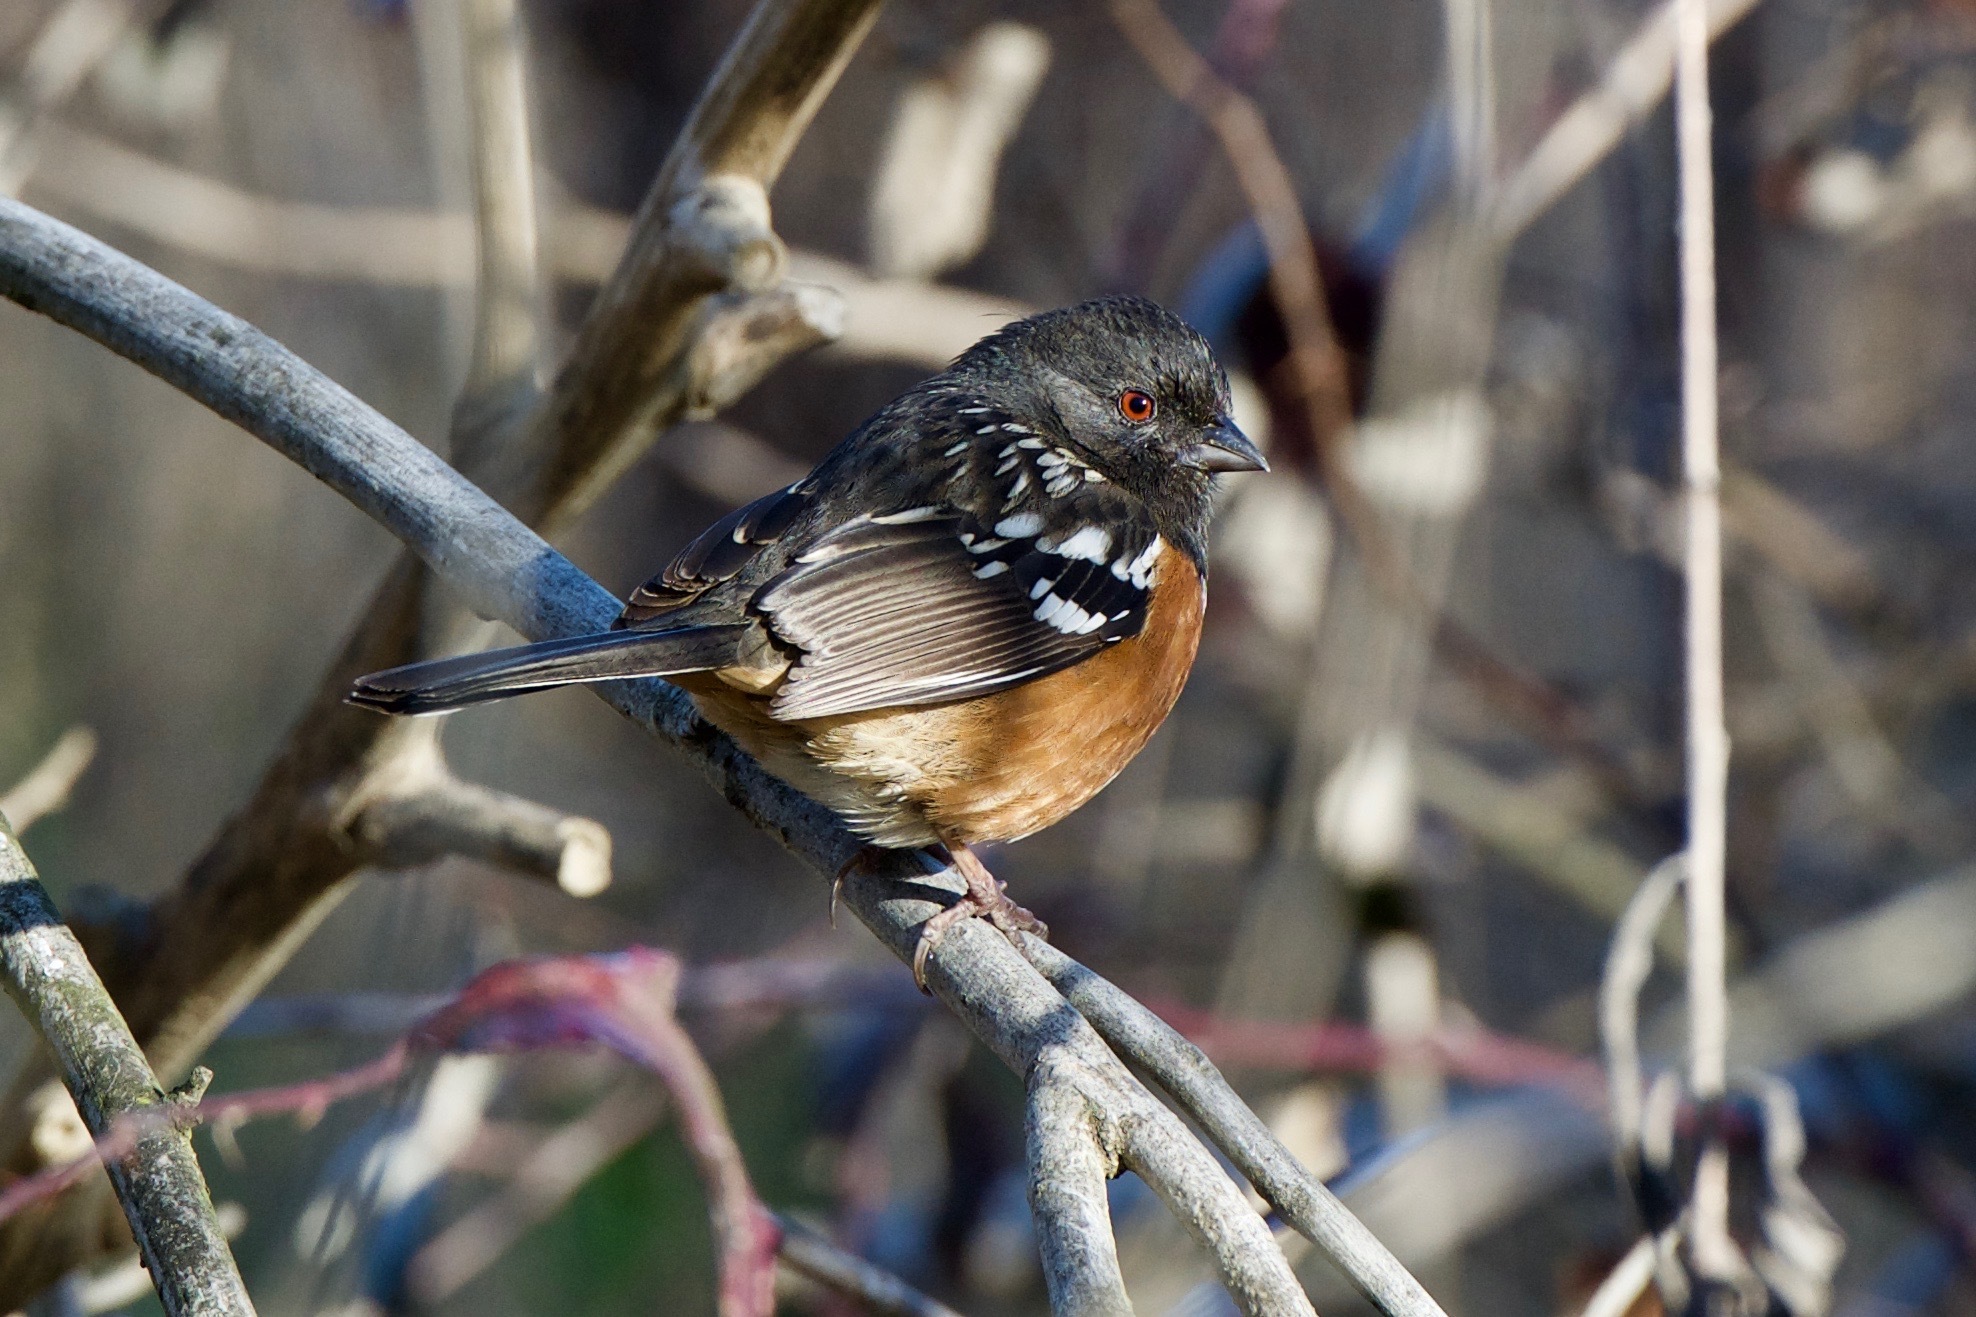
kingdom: Animalia
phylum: Chordata
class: Aves
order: Passeriformes
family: Passerellidae
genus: Pipilo
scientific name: Pipilo maculatus
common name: Spotted towhee
